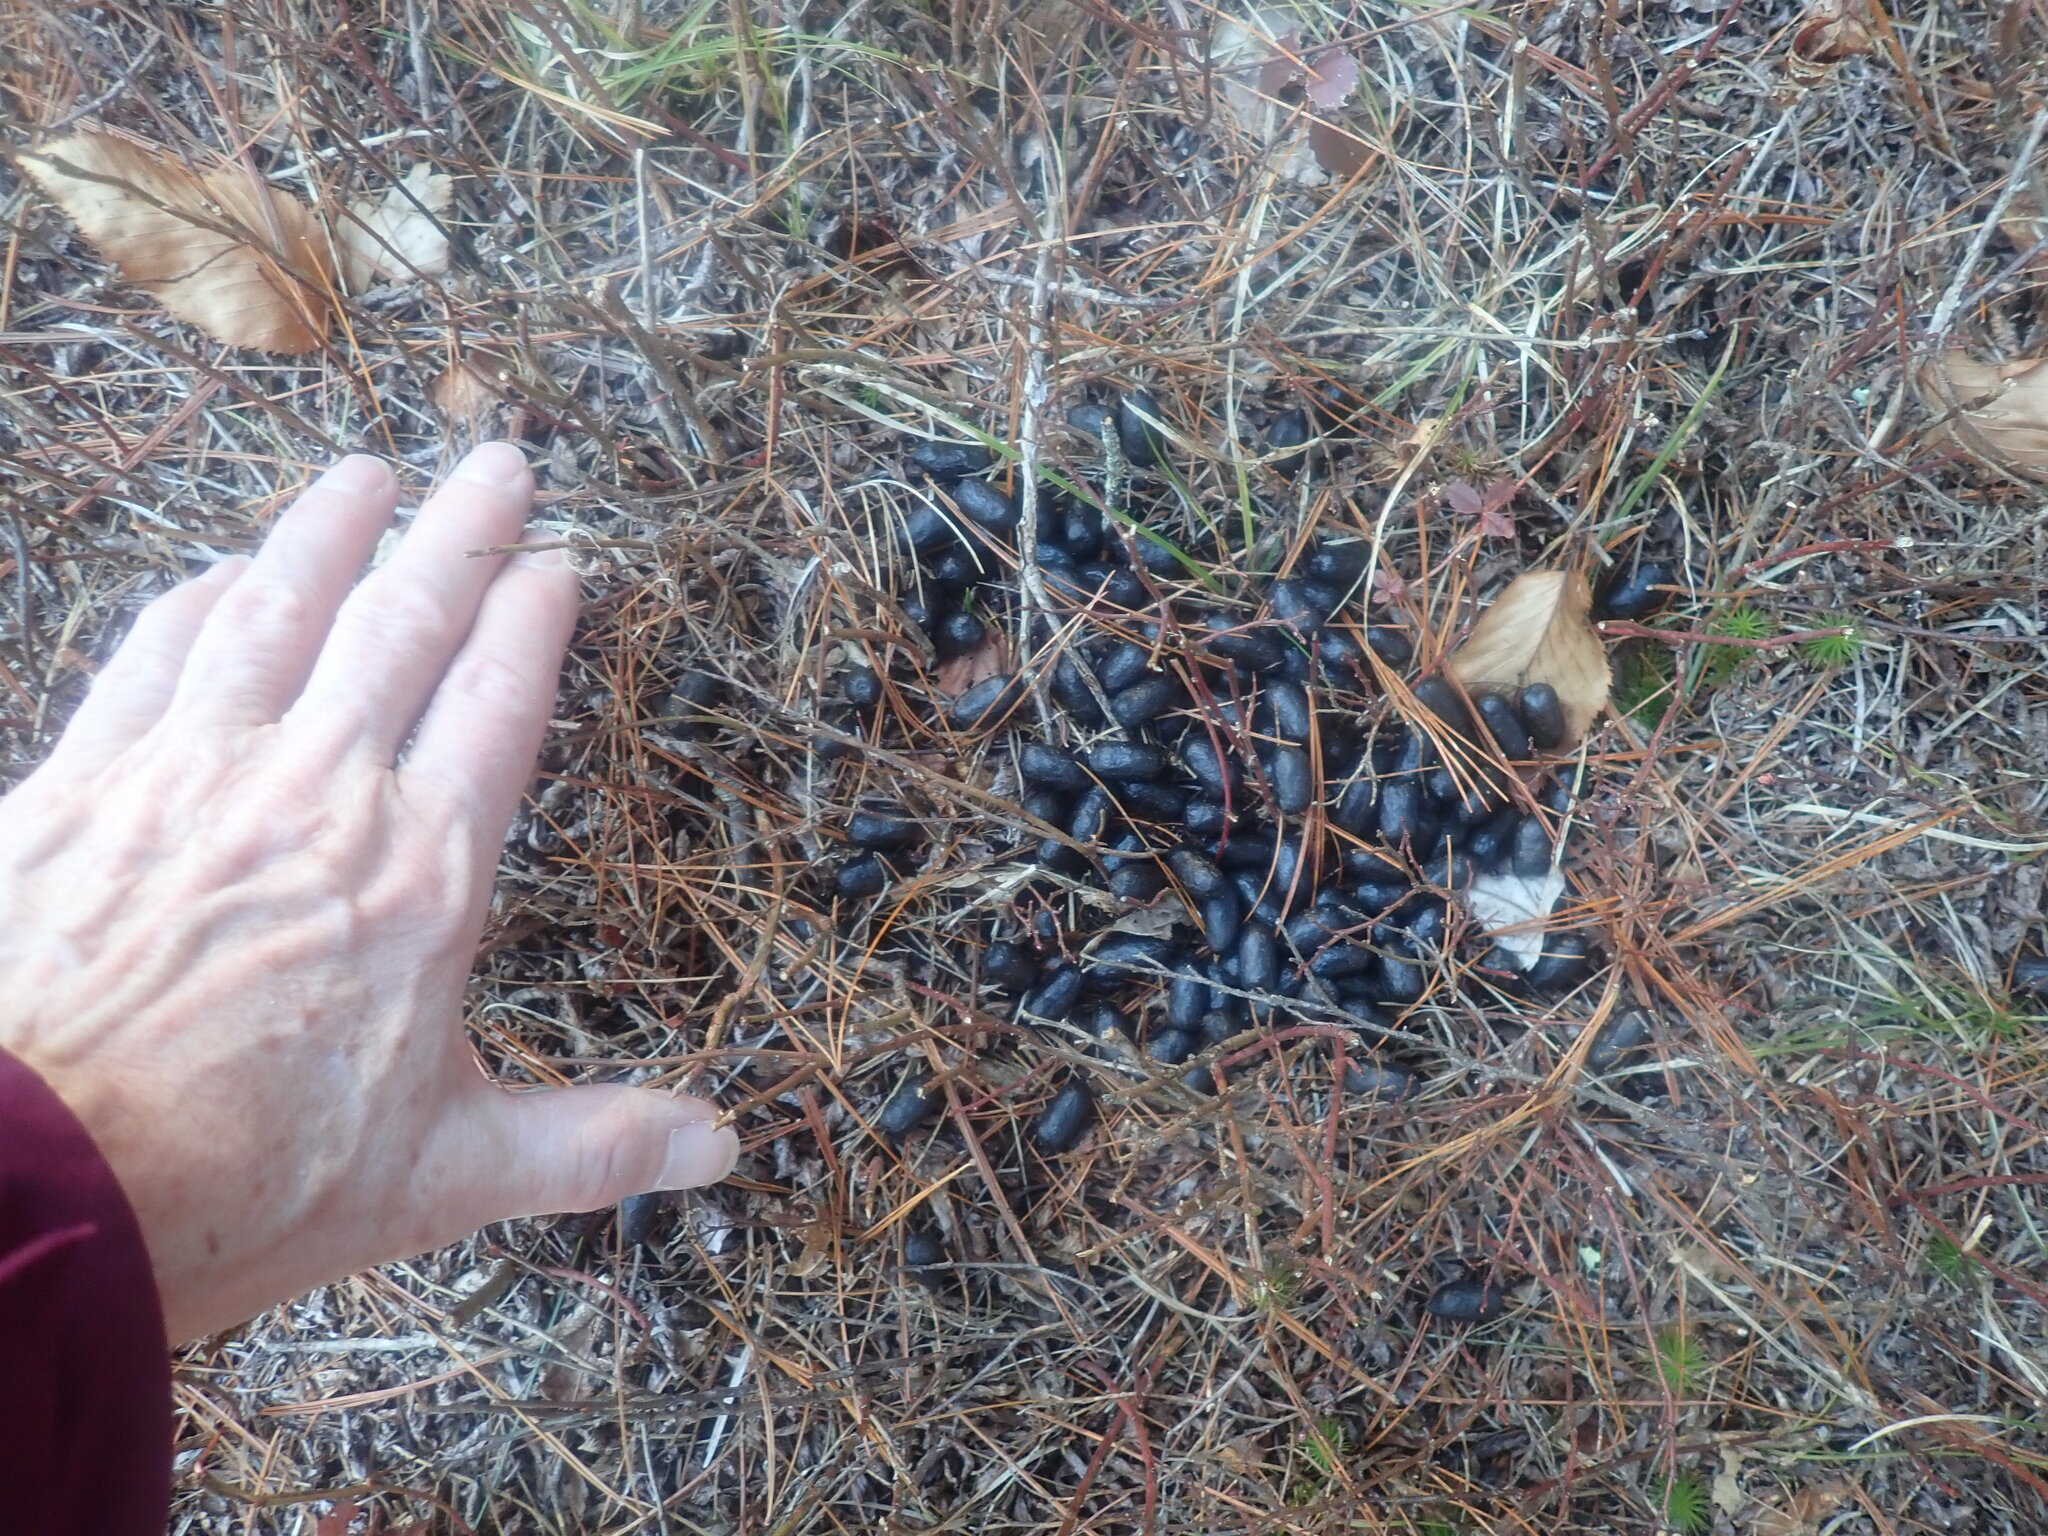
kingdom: Animalia
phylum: Chordata
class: Mammalia
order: Artiodactyla
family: Cervidae
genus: Odocoileus
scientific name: Odocoileus virginianus
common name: White-tailed deer
